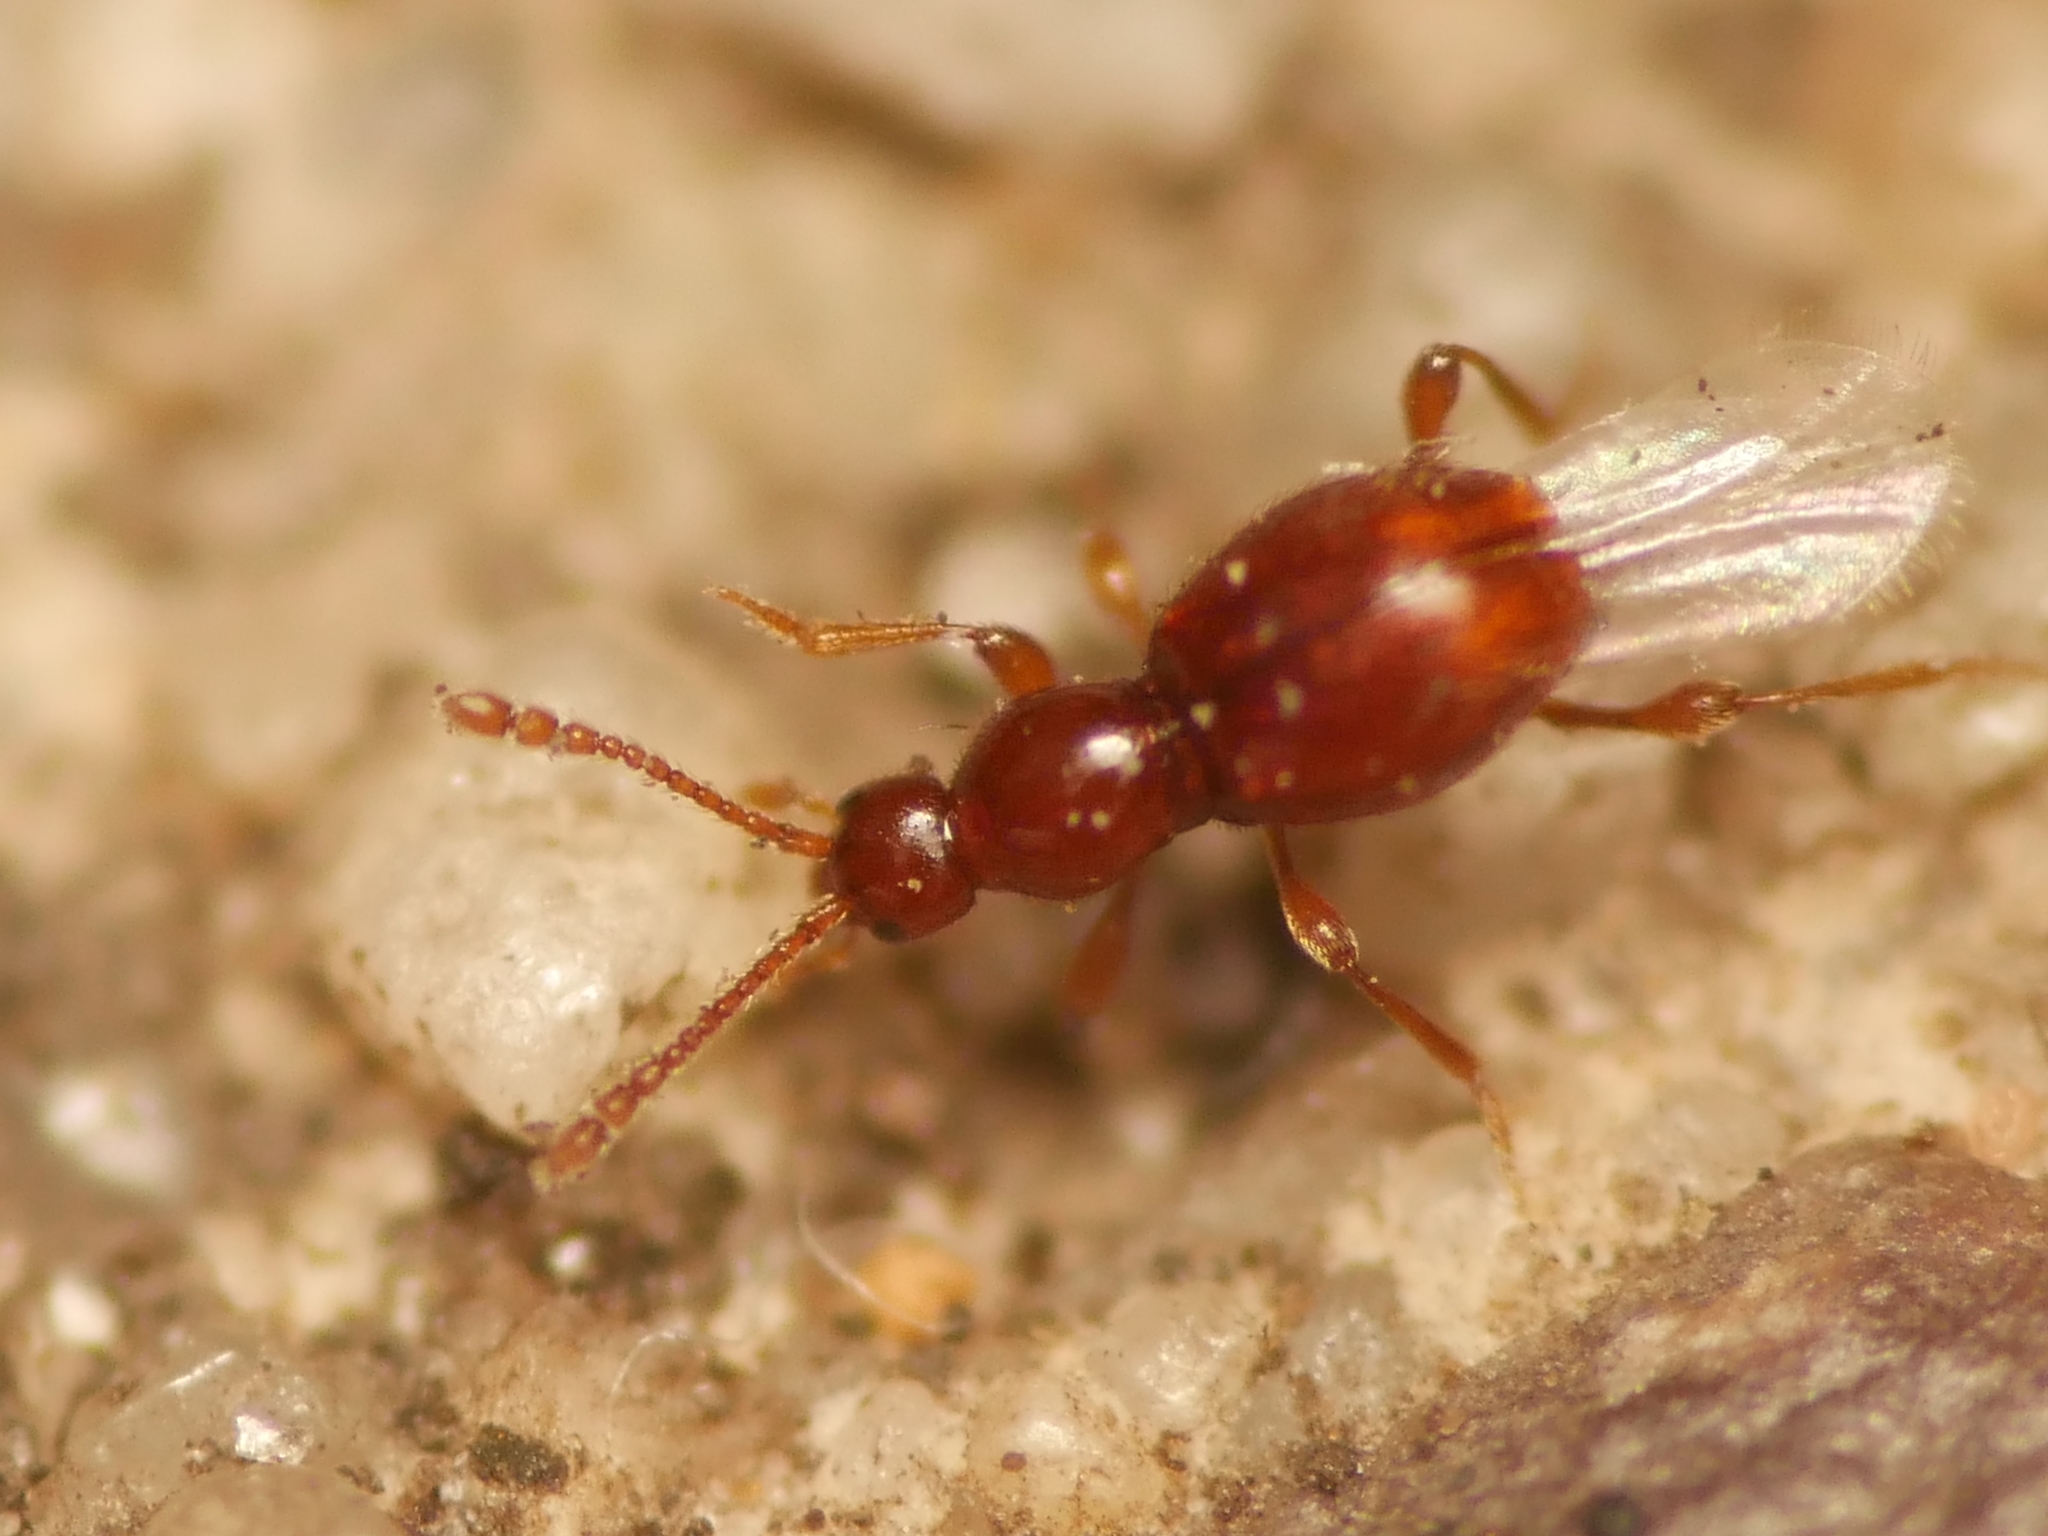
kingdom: Animalia
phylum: Arthropoda
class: Insecta
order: Coleoptera
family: Staphylinidae
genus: Scydmaenus
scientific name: Scydmaenus rufus
